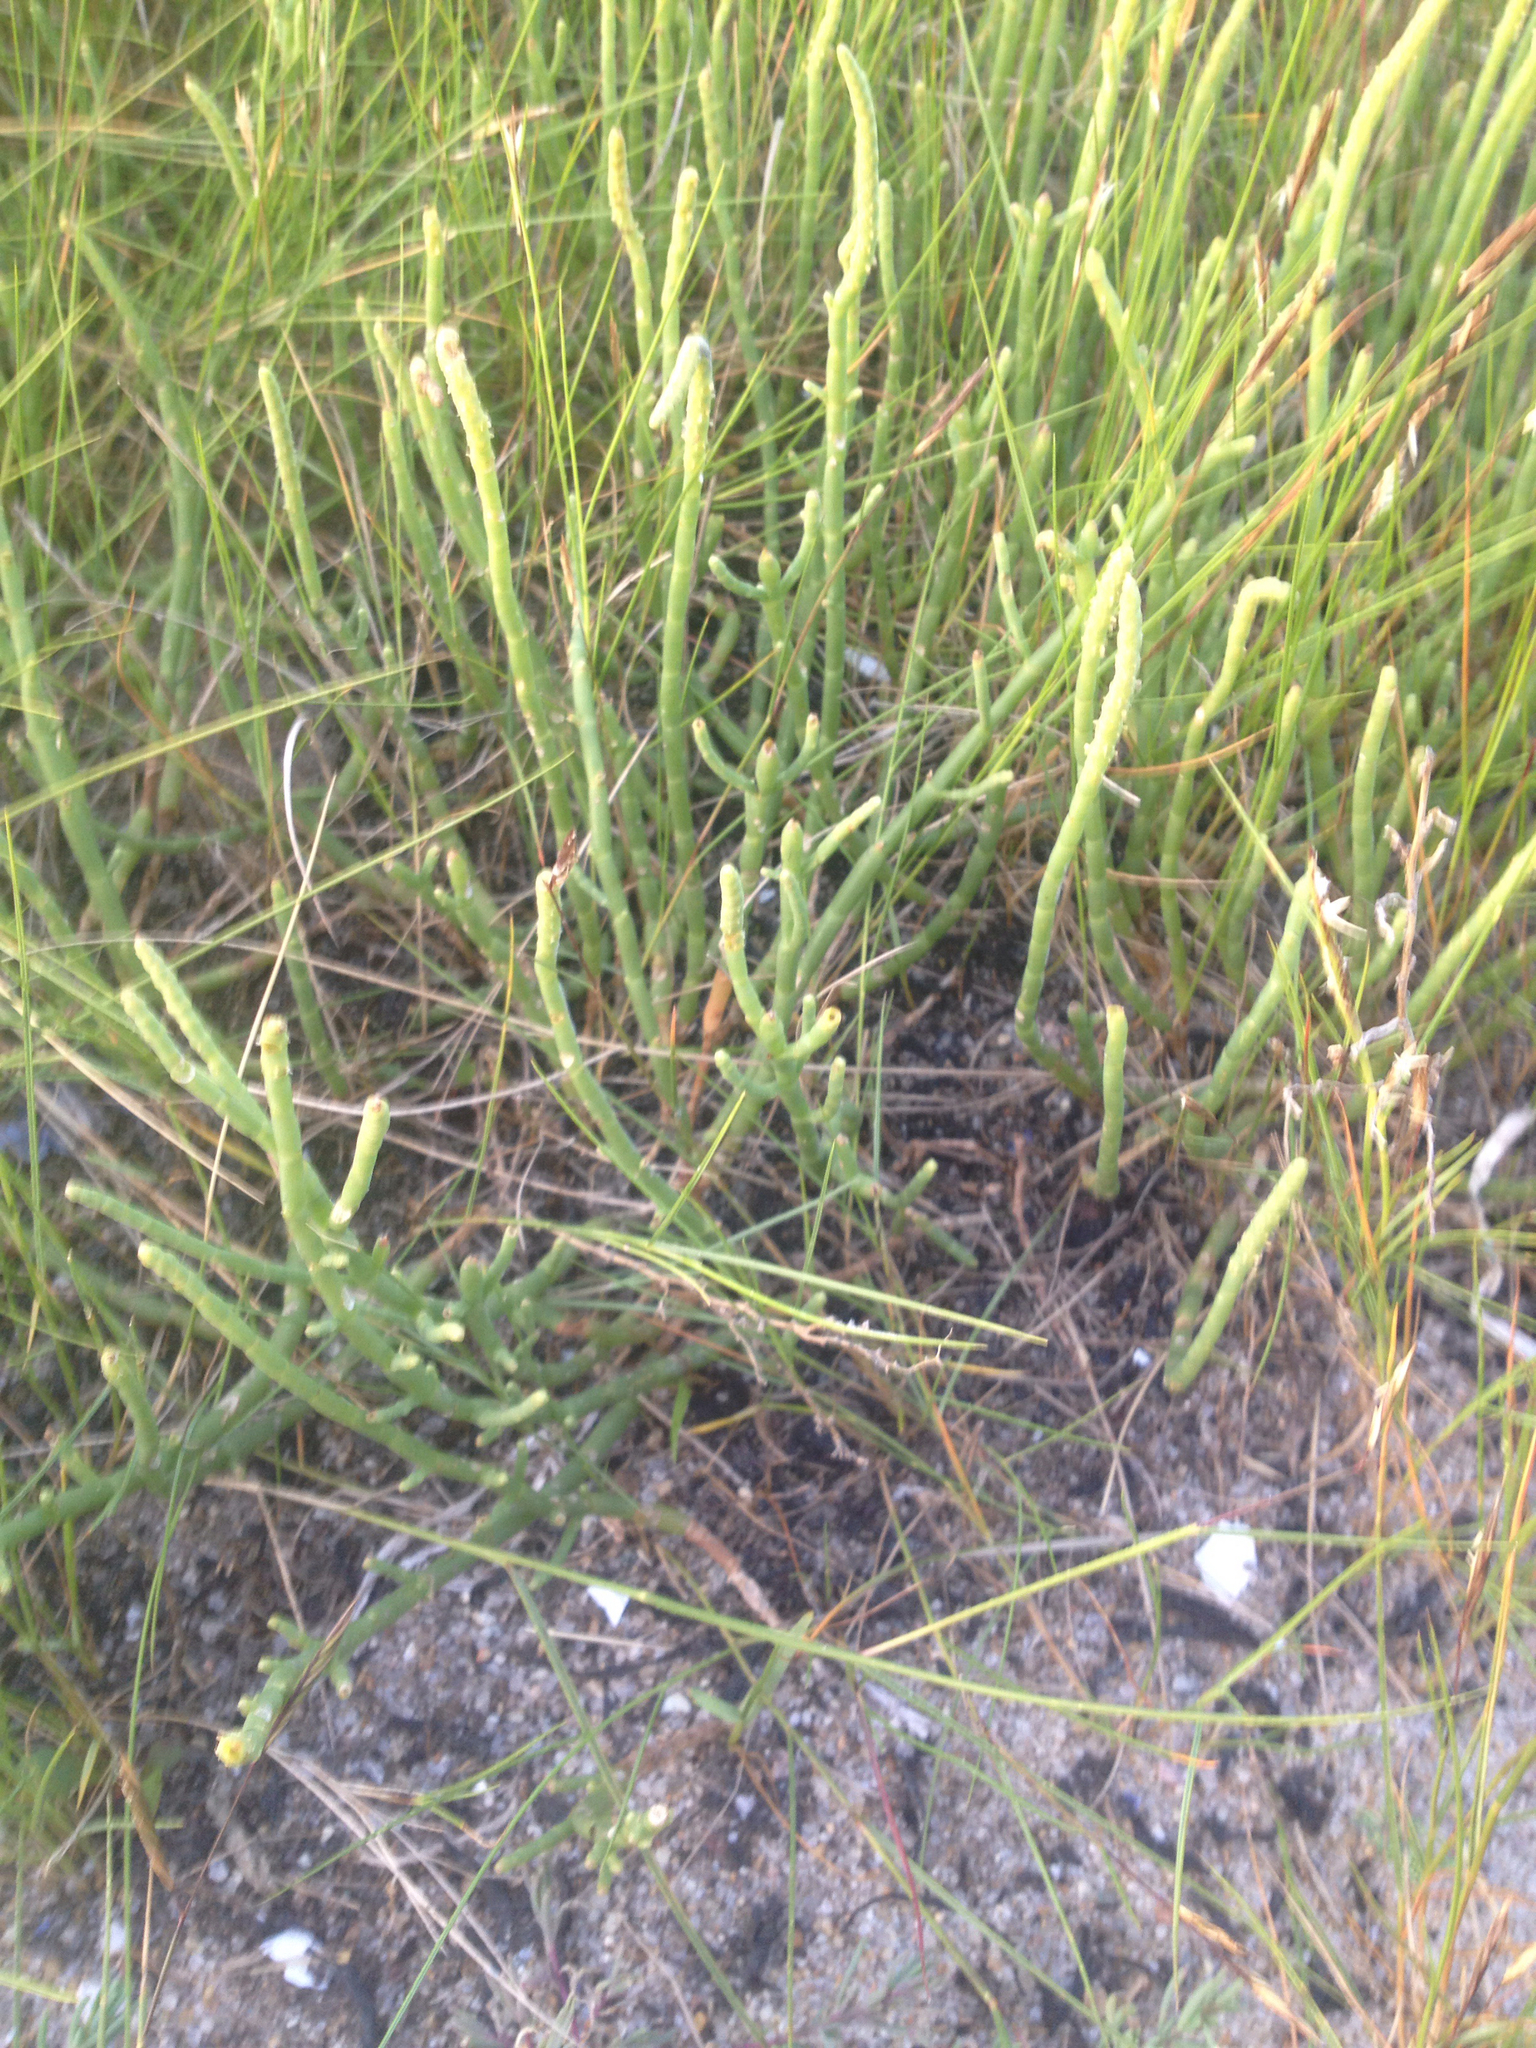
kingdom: Plantae
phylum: Tracheophyta
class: Magnoliopsida
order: Caryophyllales
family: Amaranthaceae
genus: Salicornia
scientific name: Salicornia perennis
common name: Chicken claws
